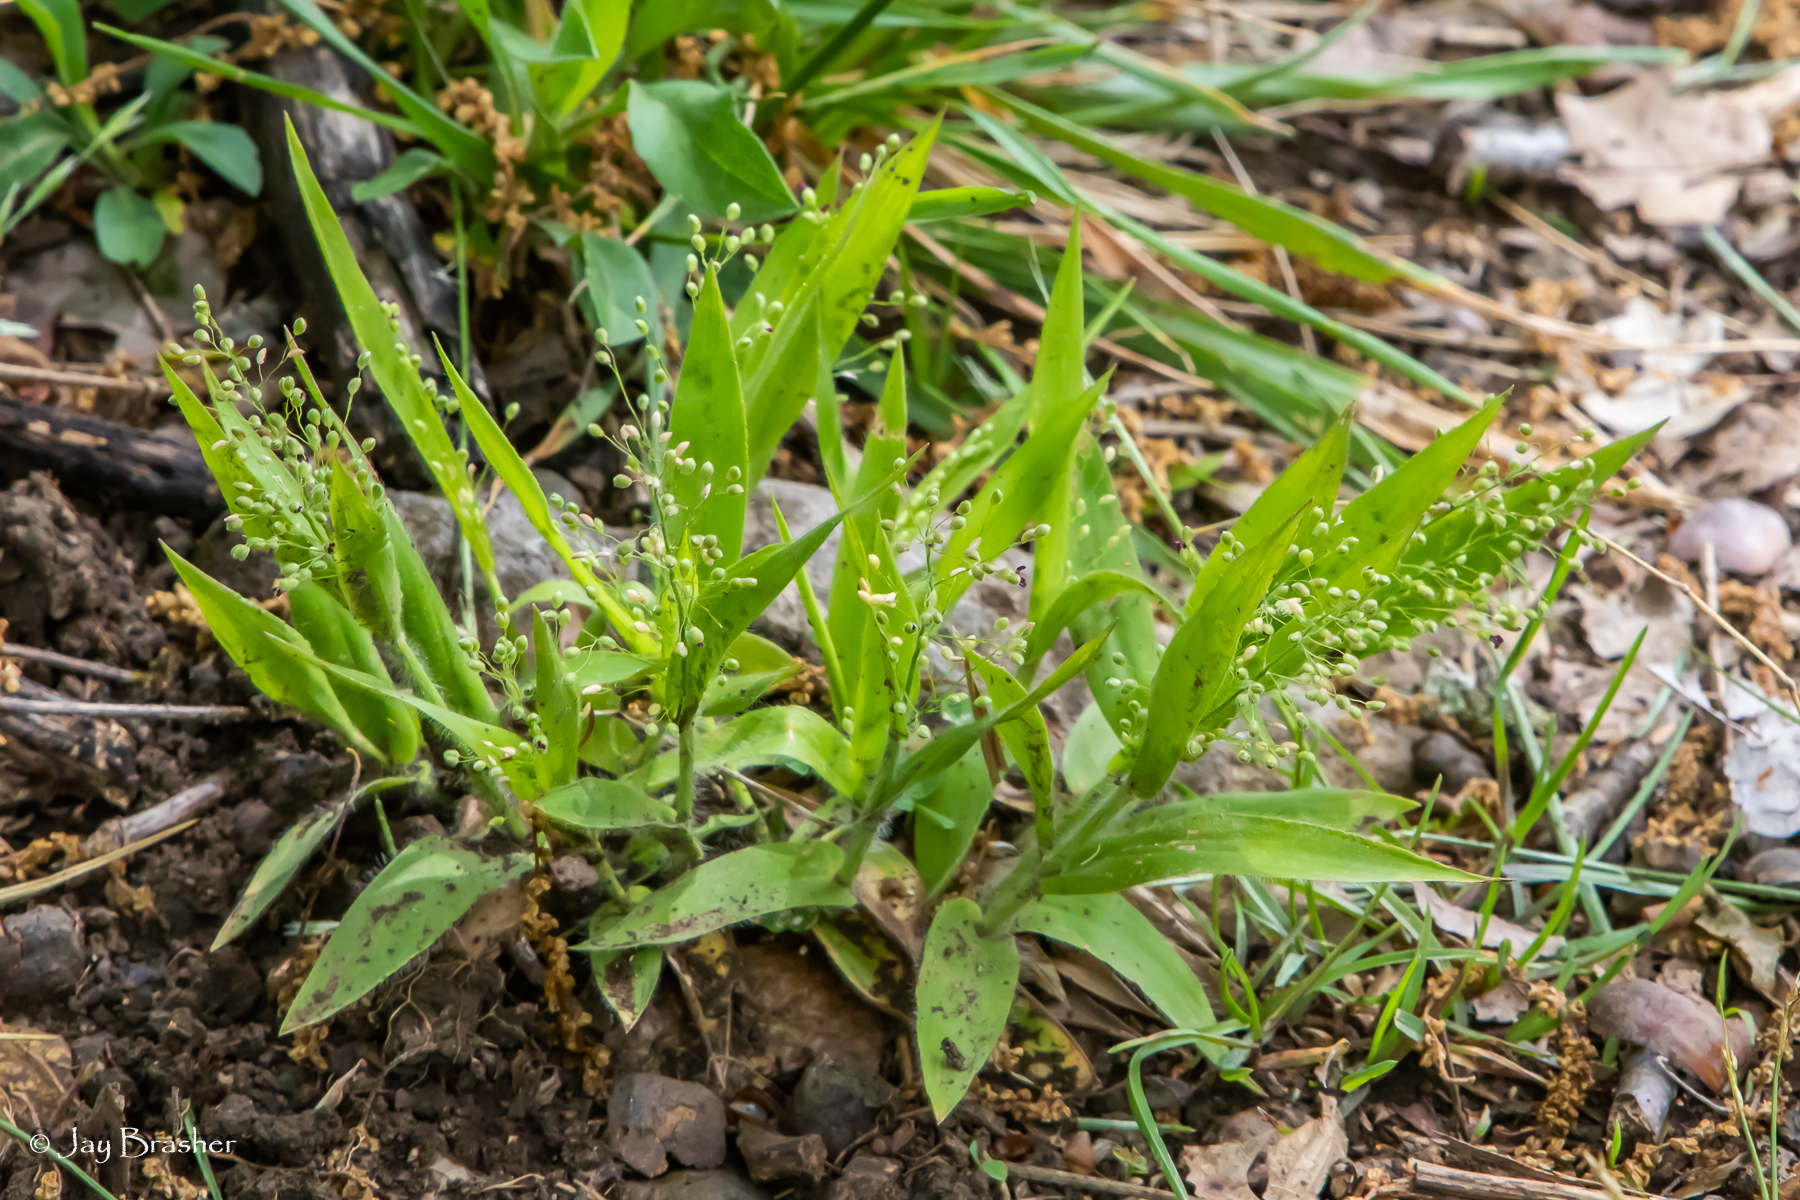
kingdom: Plantae
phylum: Tracheophyta
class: Liliopsida
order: Poales
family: Poaceae
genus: Dichanthelium
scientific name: Dichanthelium laxiflorum
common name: Soft-tuft panic grass
